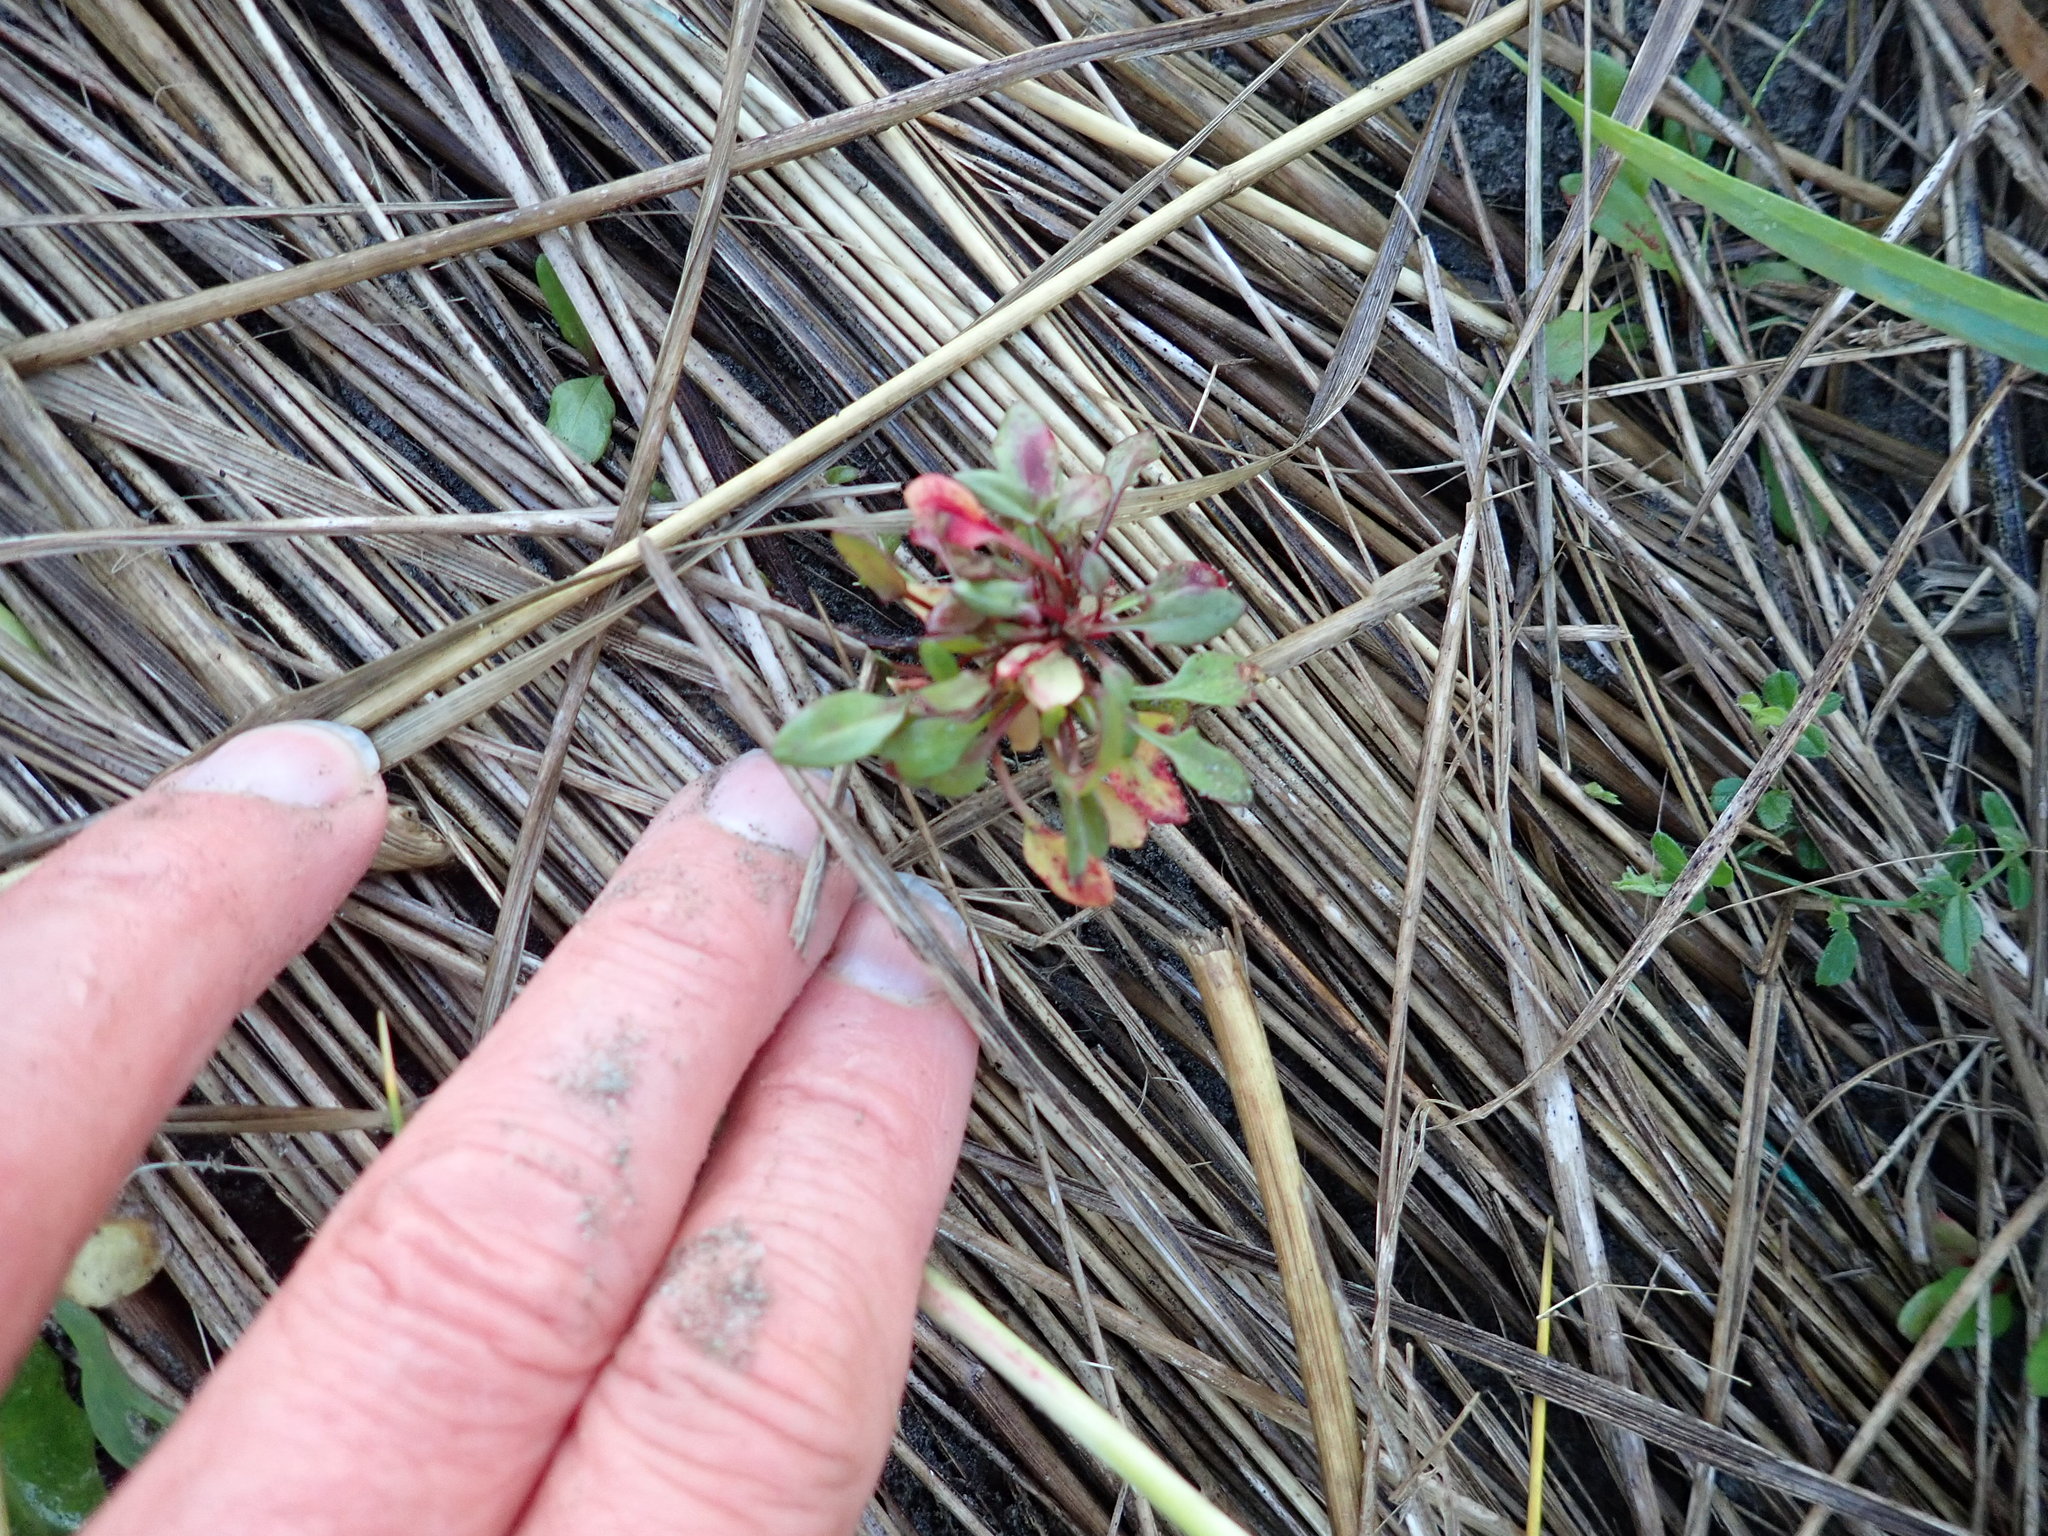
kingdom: Plantae
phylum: Tracheophyta
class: Magnoliopsida
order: Caryophyllales
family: Polygonaceae
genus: Rumex
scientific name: Rumex acetosella
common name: Common sheep sorrel
